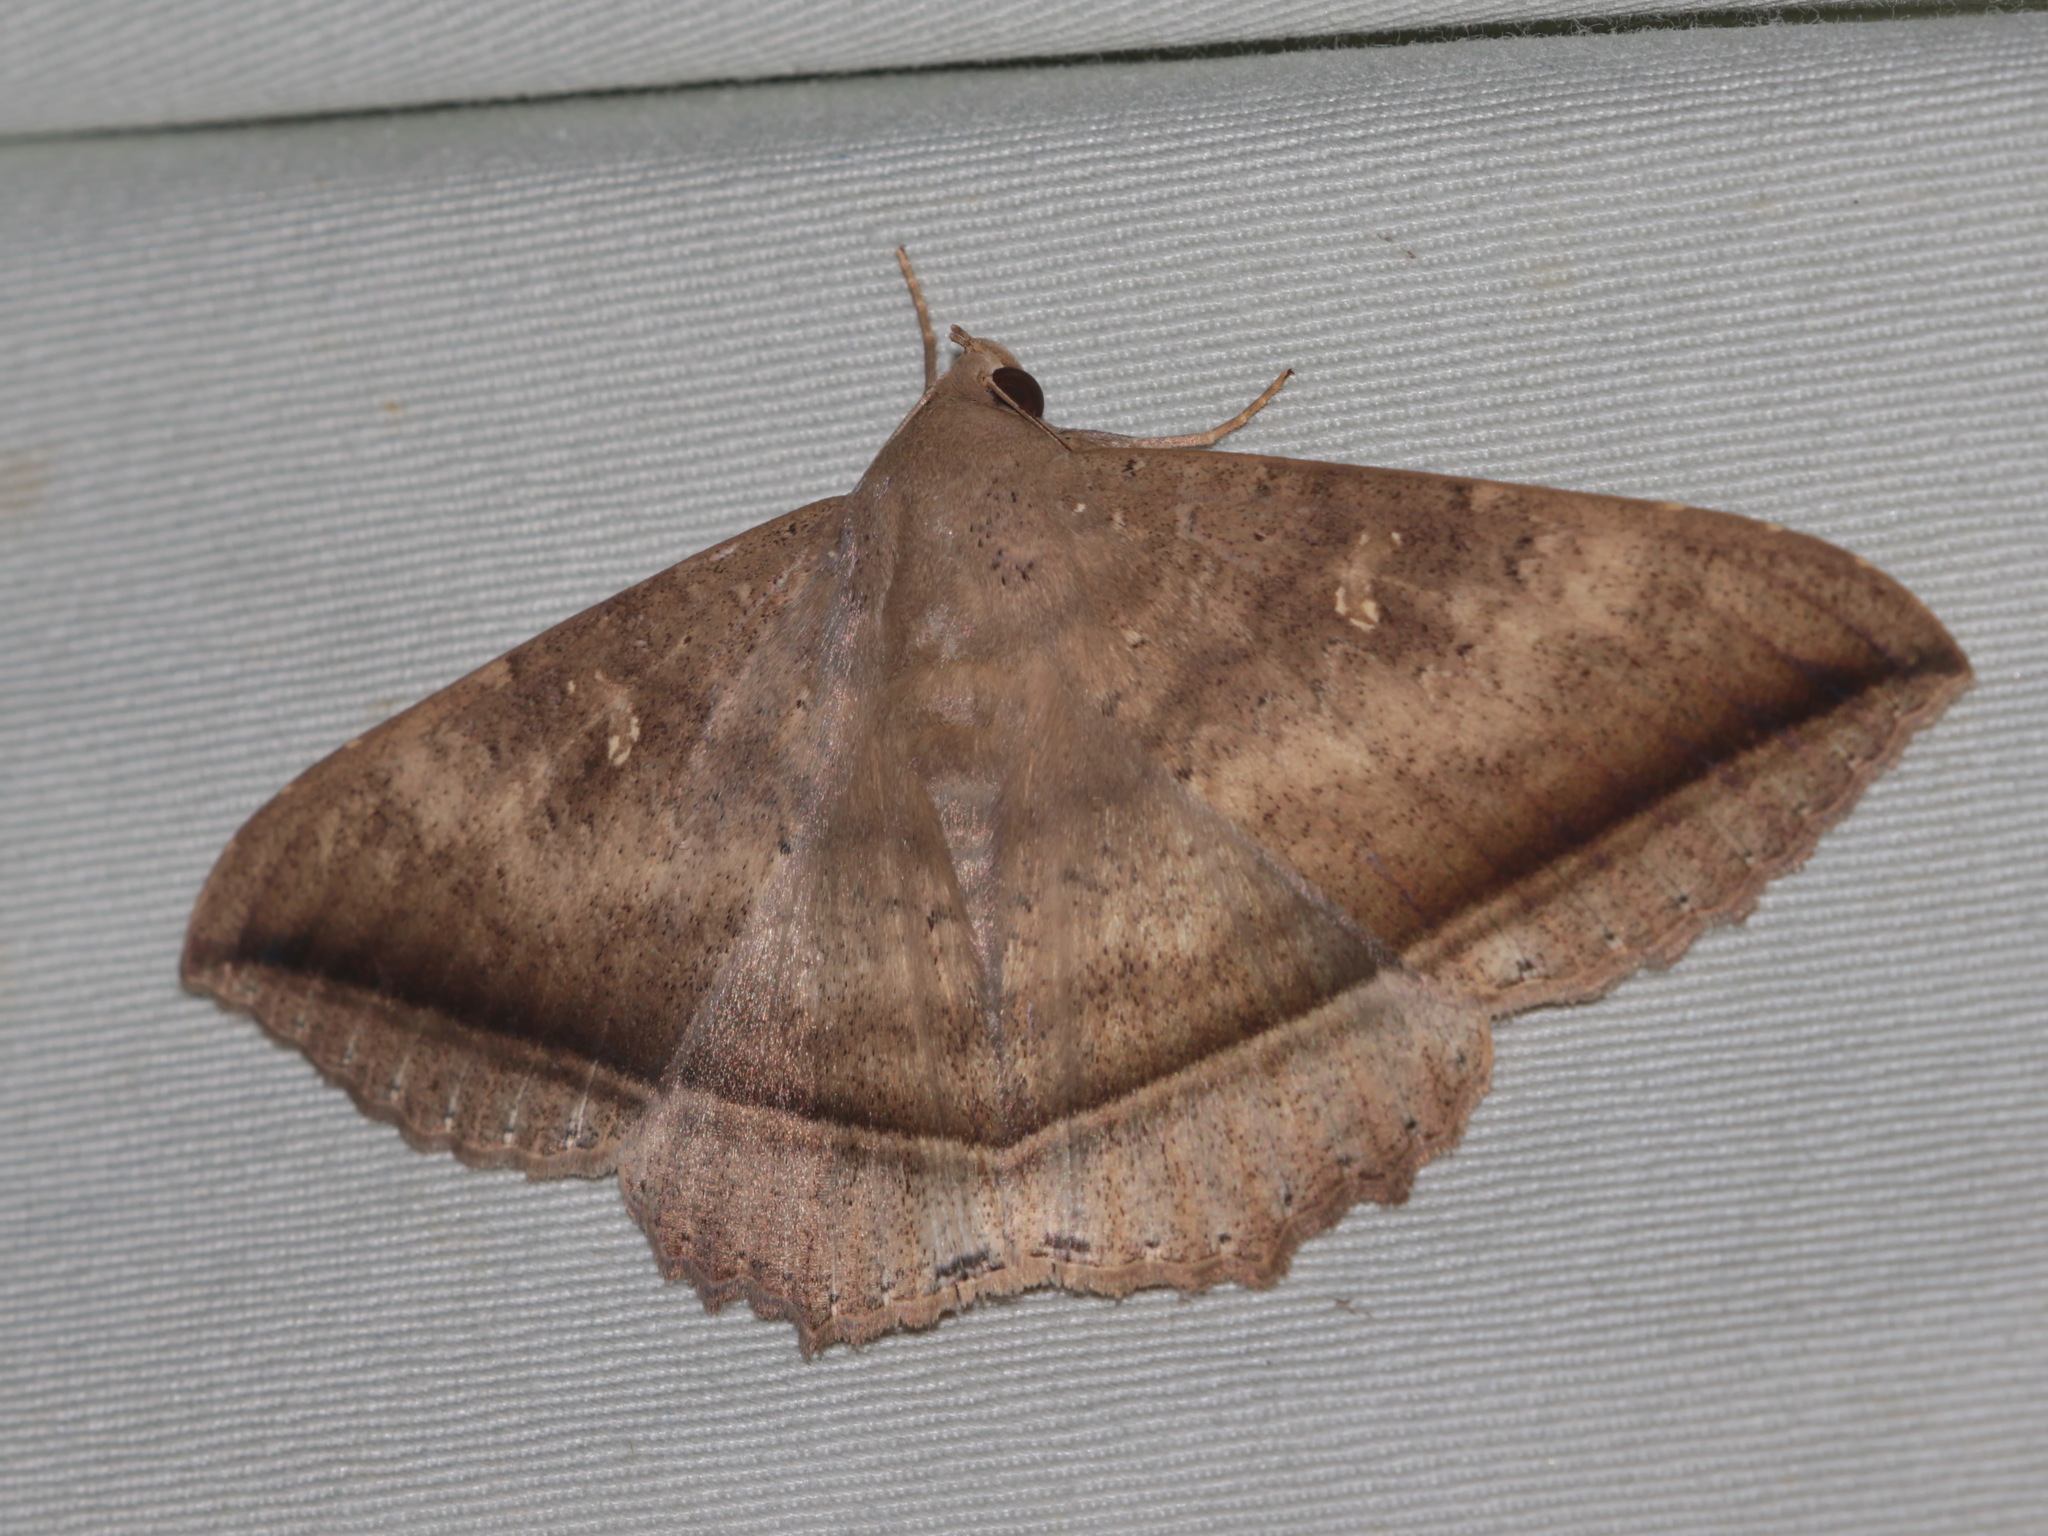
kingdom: Animalia
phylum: Arthropoda
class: Insecta
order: Lepidoptera
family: Erebidae
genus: Hulodes
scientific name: Hulodes caranea
